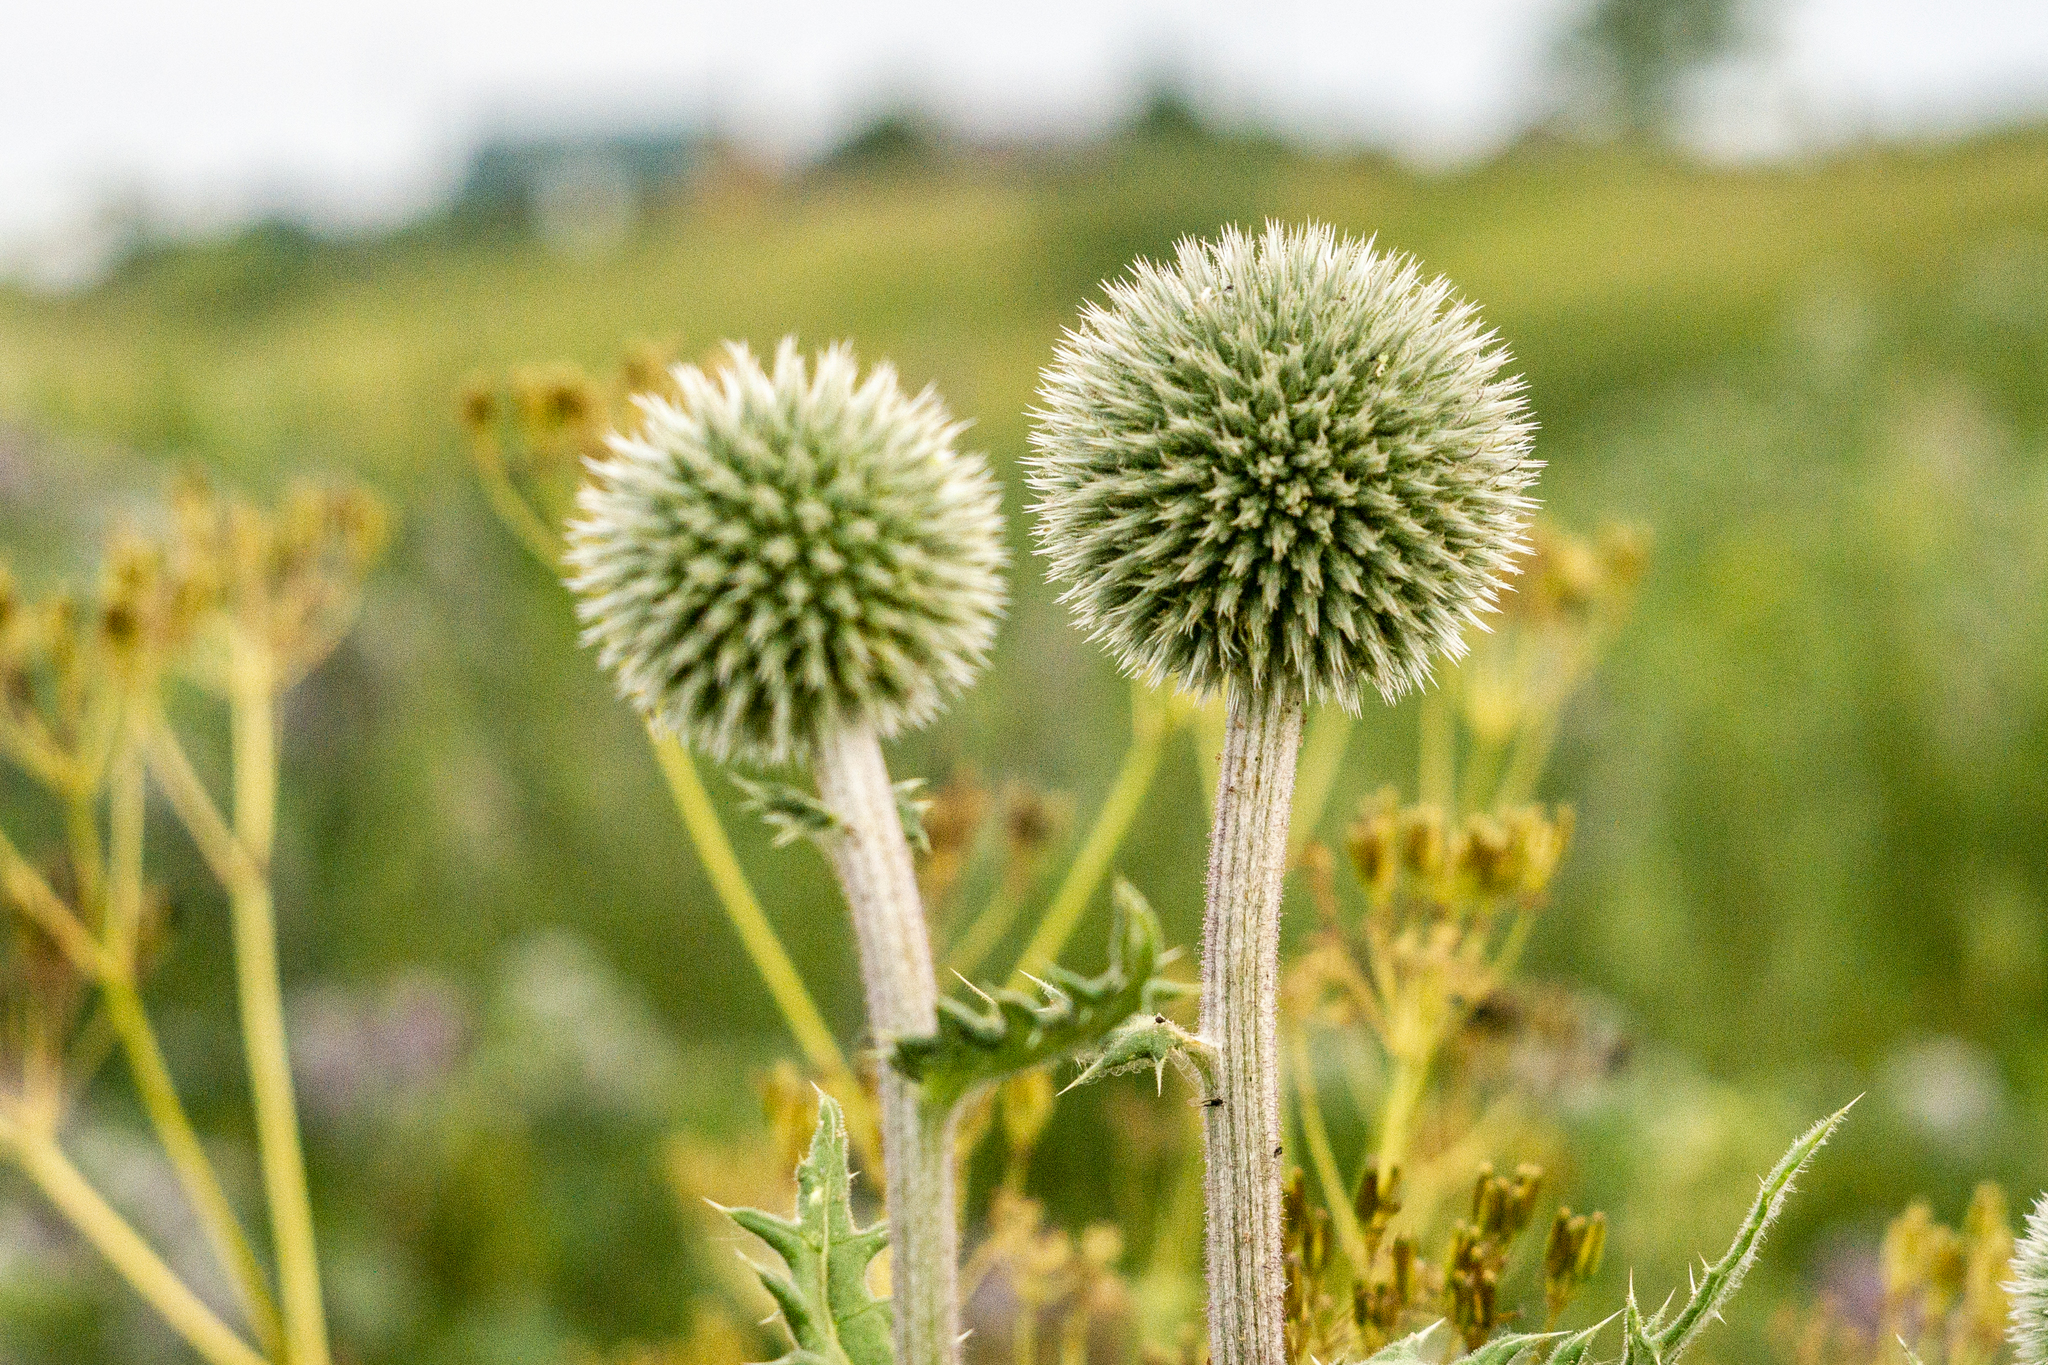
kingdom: Plantae
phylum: Tracheophyta
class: Magnoliopsida
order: Asterales
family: Asteraceae
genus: Echinops
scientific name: Echinops sphaerocephalus
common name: Glandular globe-thistle
